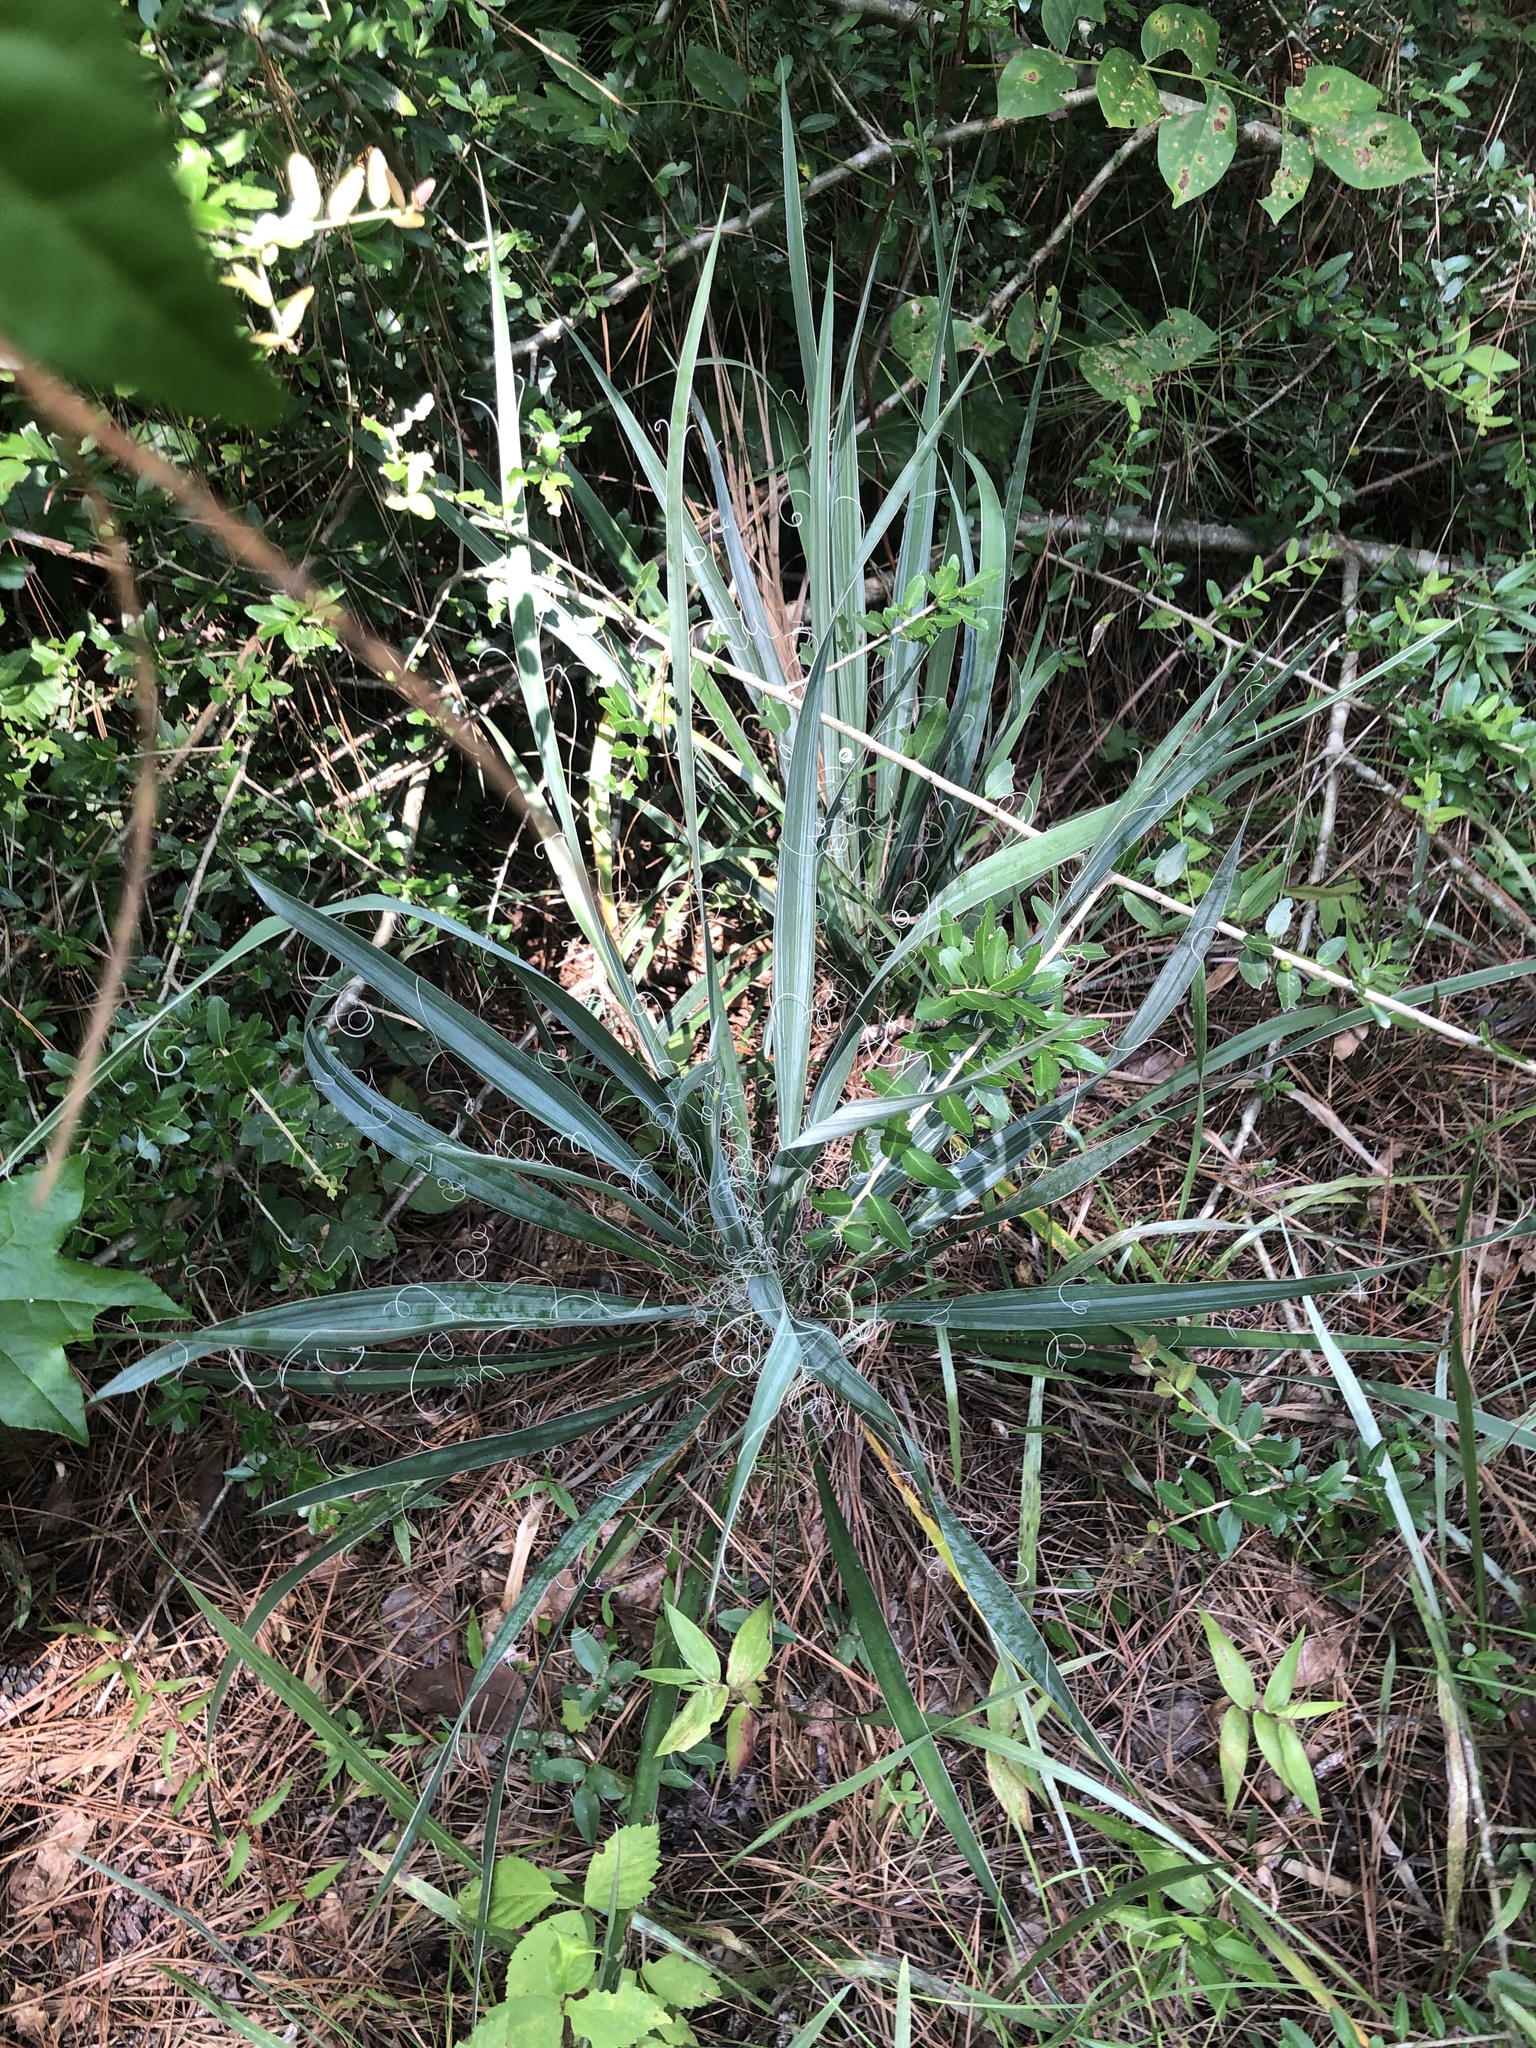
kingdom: Plantae
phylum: Tracheophyta
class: Liliopsida
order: Asparagales
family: Asparagaceae
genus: Yucca
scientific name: Yucca flaccida
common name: Adam's-needle
